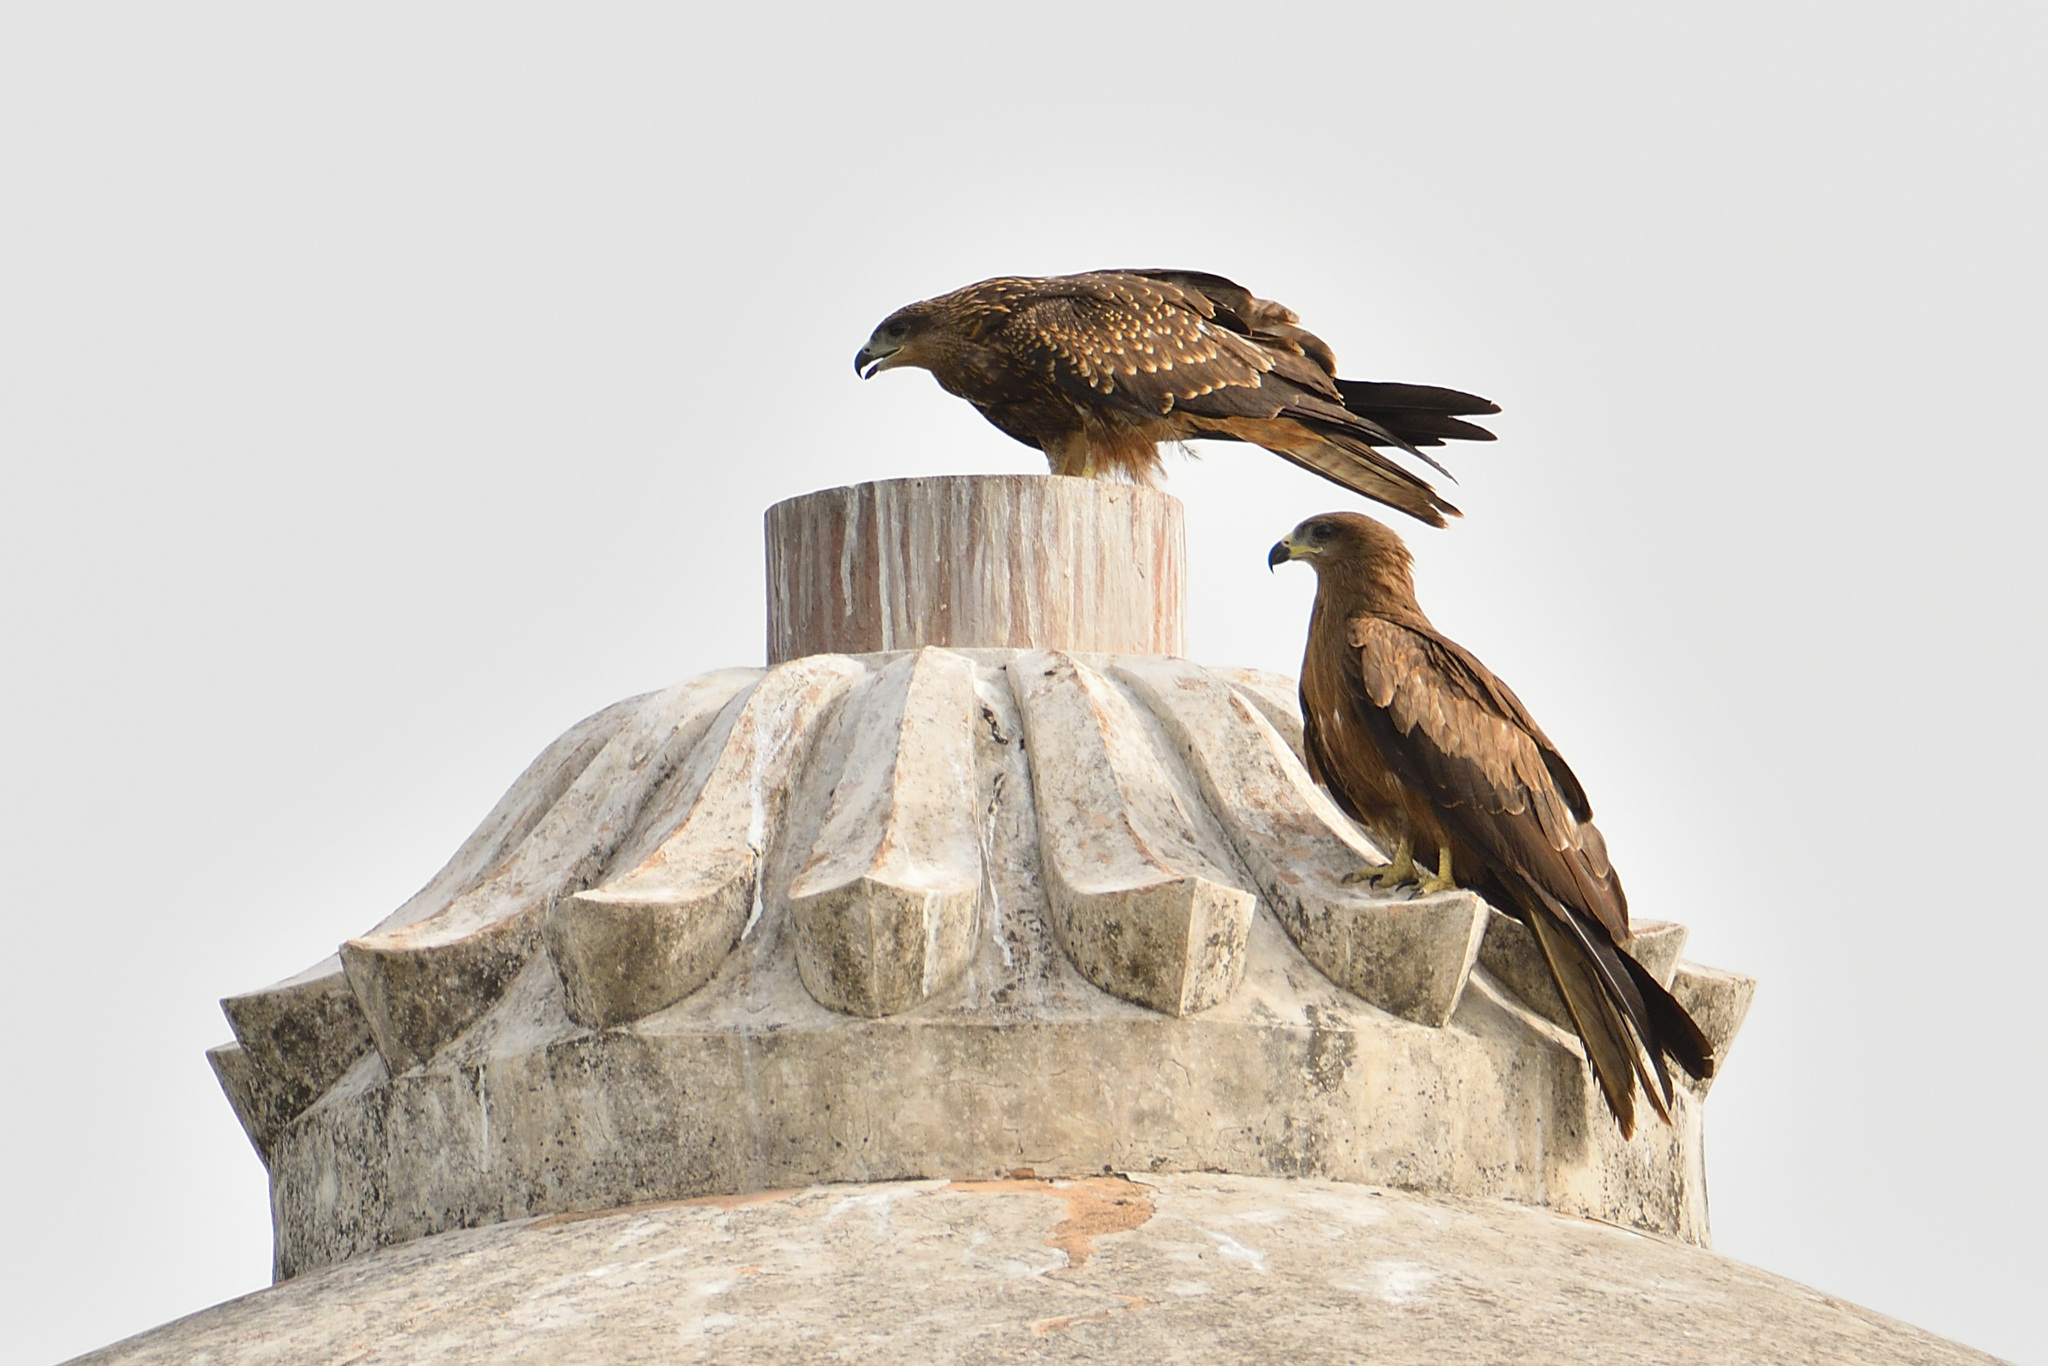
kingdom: Animalia
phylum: Chordata
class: Aves
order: Accipitriformes
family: Accipitridae
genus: Milvus
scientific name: Milvus migrans
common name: Black kite
